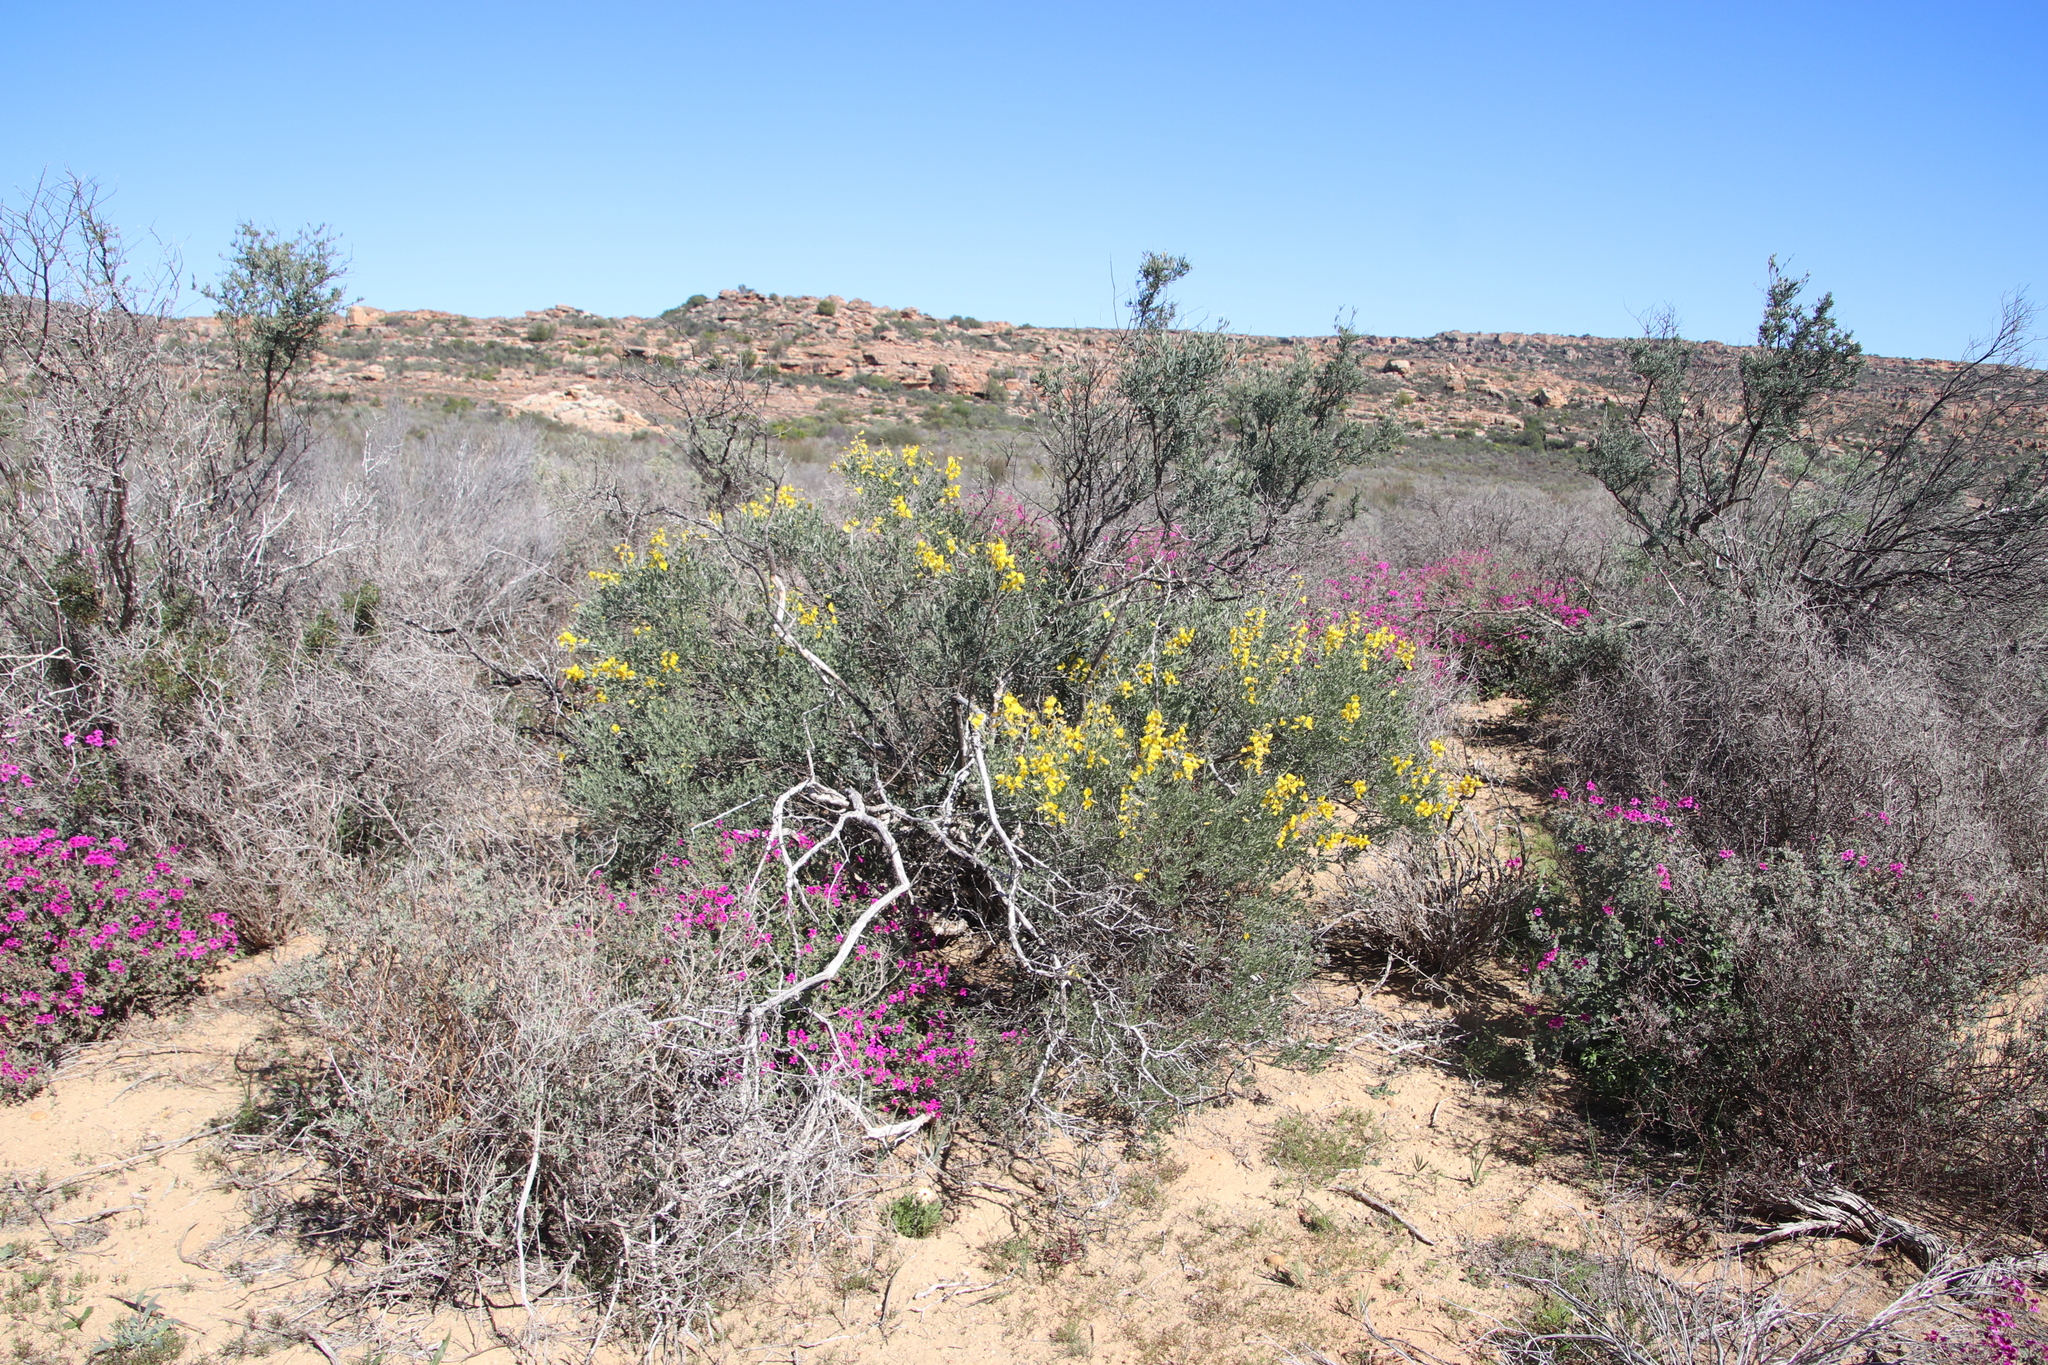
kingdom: Plantae
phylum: Tracheophyta
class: Magnoliopsida
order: Fabales
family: Fabaceae
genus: Calobota
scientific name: Calobota sericea
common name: Silver-pea
